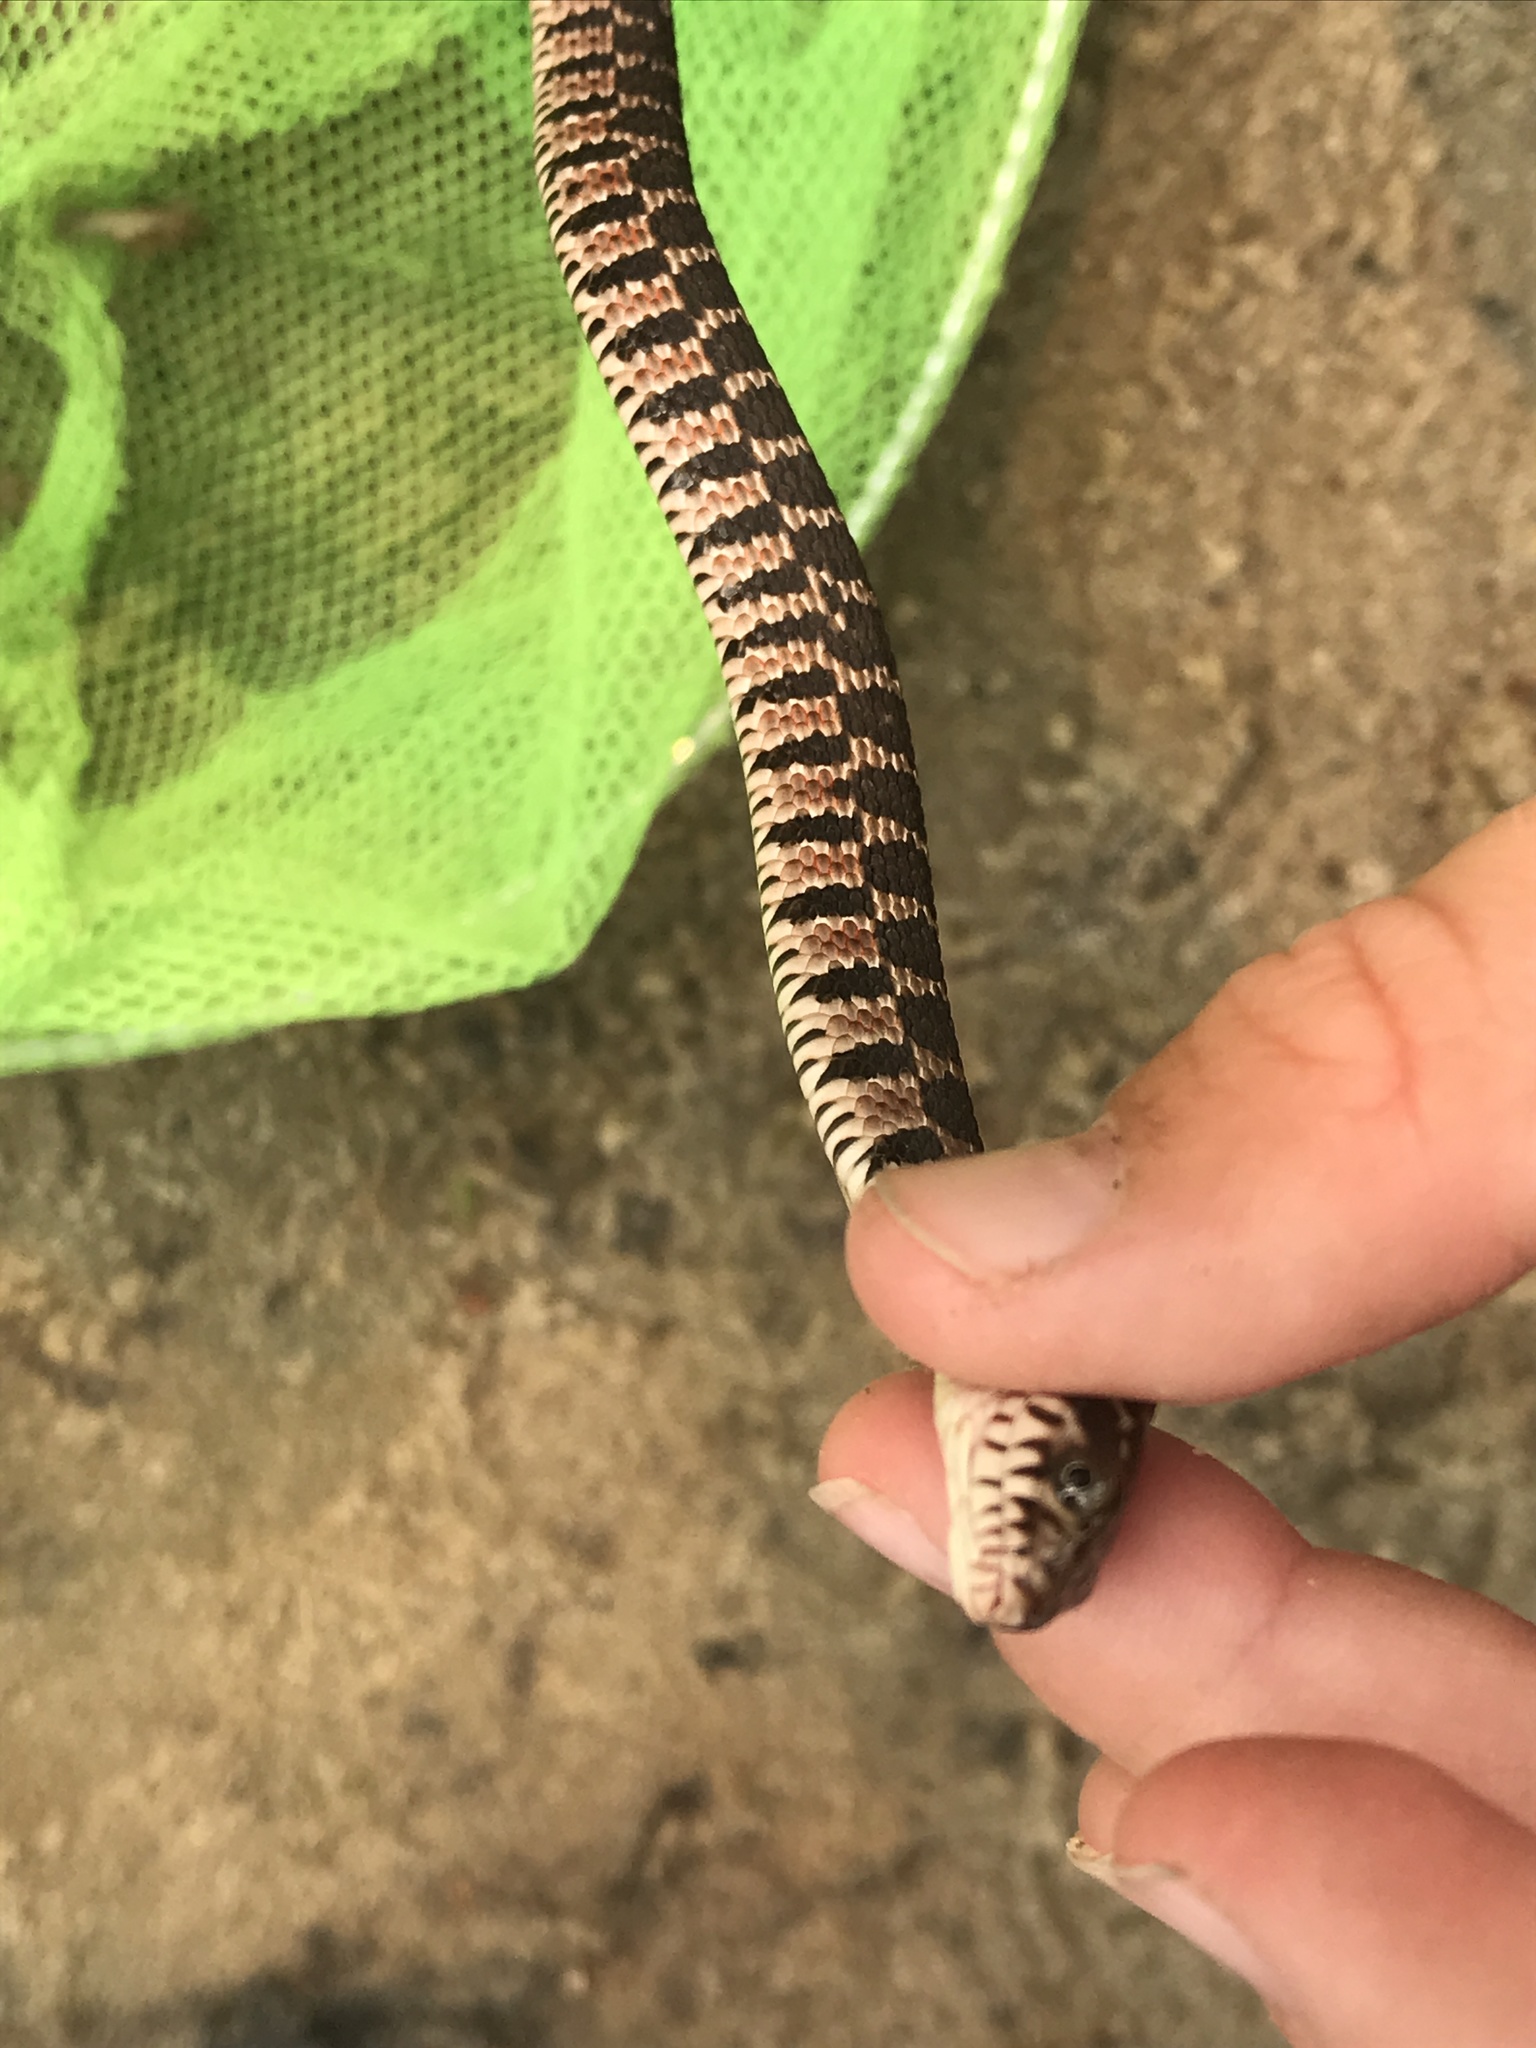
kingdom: Animalia
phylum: Chordata
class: Squamata
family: Colubridae
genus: Nerodia
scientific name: Nerodia erythrogaster
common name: Plainbelly water snake
